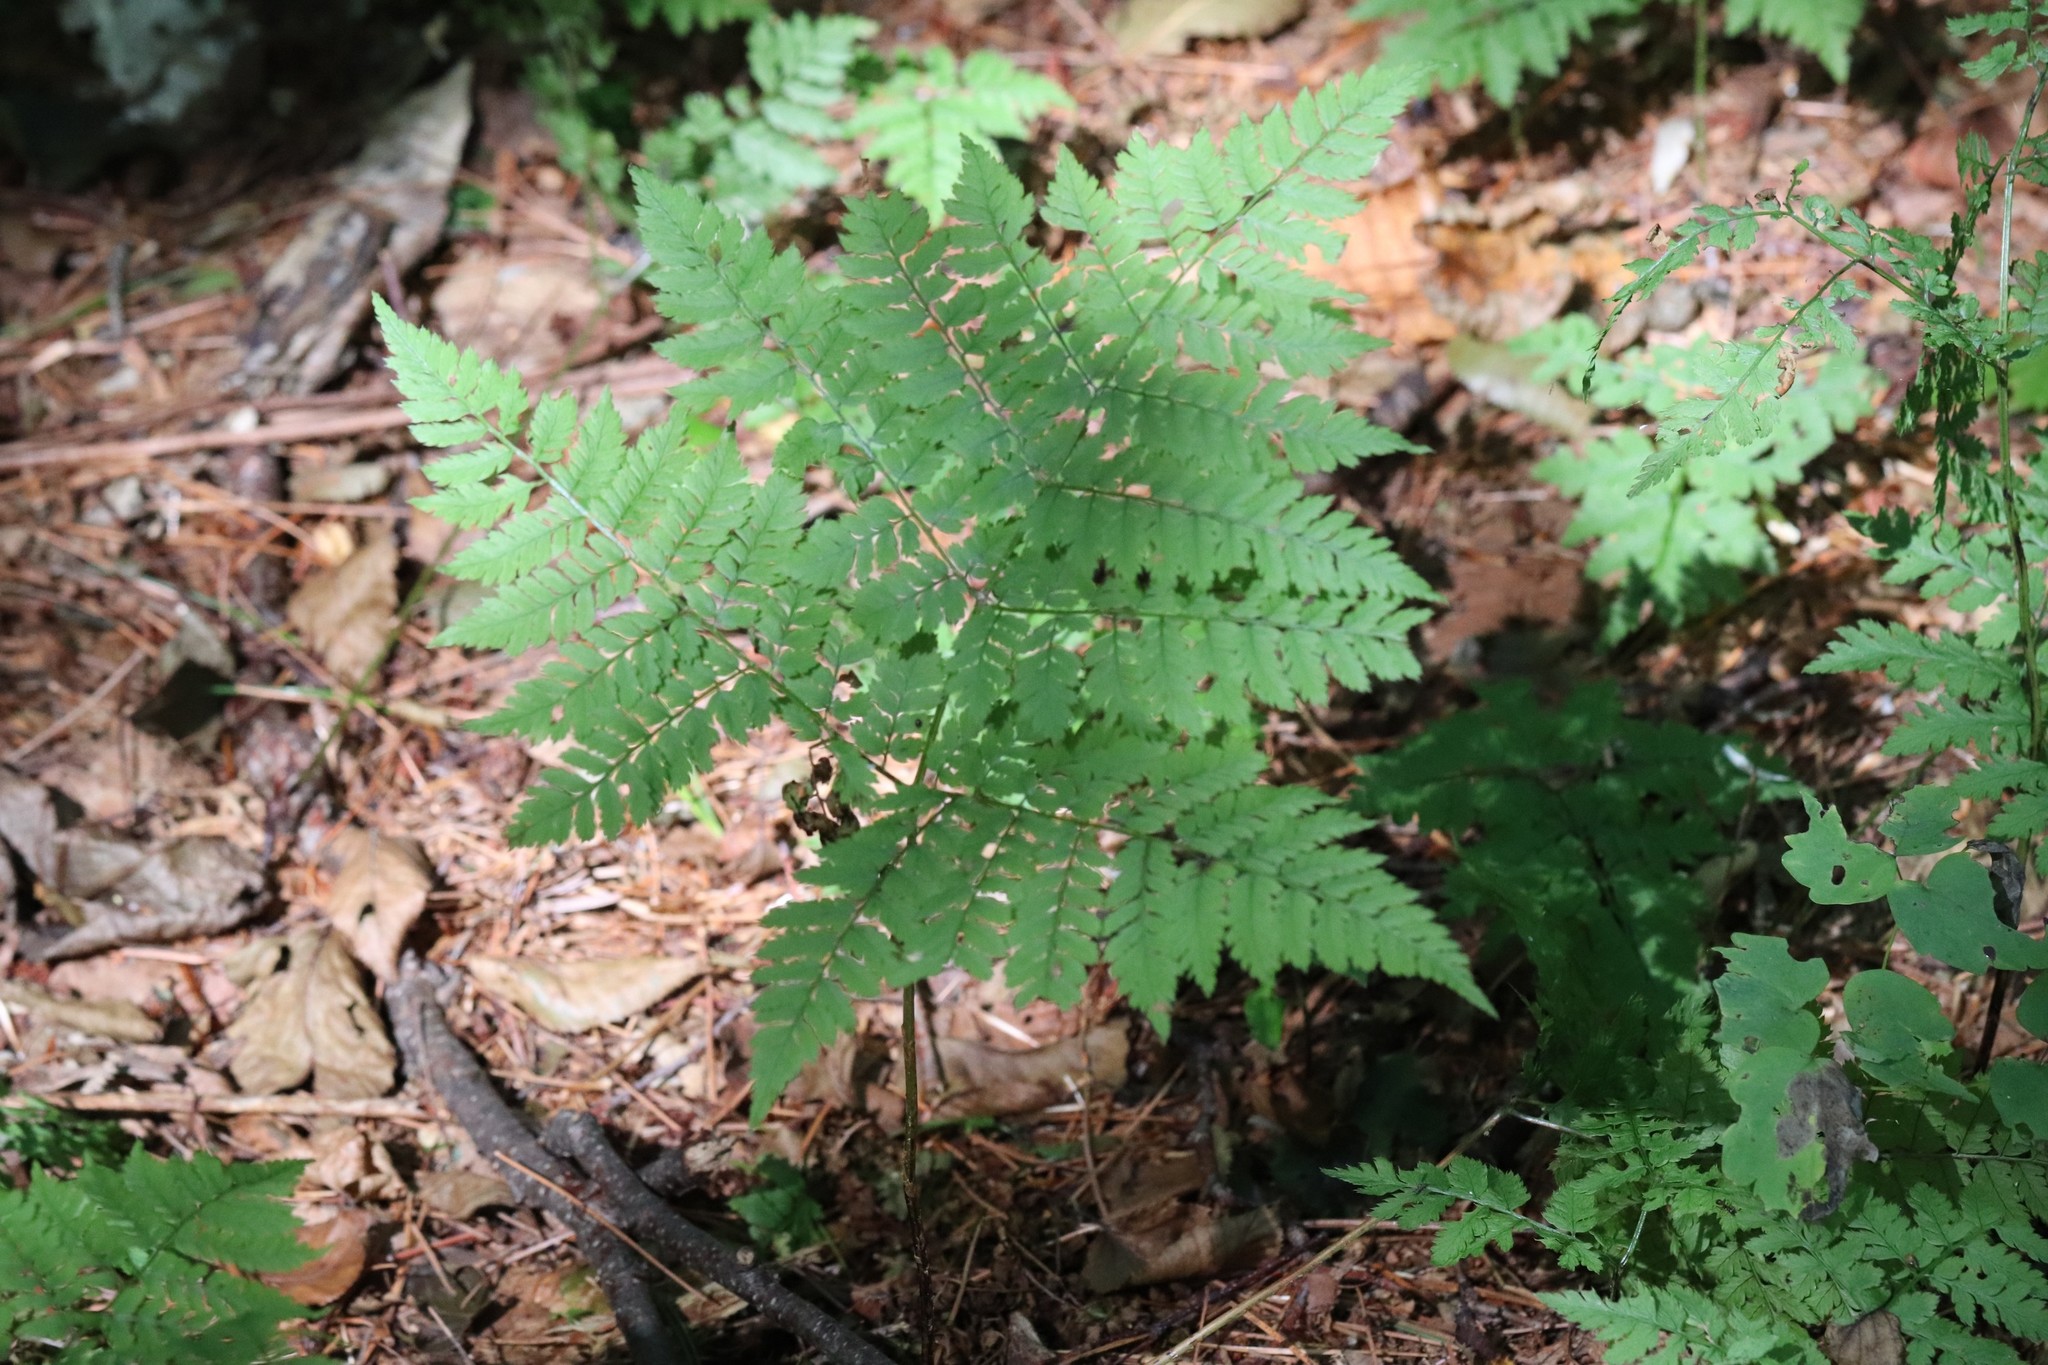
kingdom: Plantae
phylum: Tracheophyta
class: Polypodiopsida
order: Polypodiales
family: Dryopteridaceae
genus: Dryopteris
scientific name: Dryopteris amurensis
